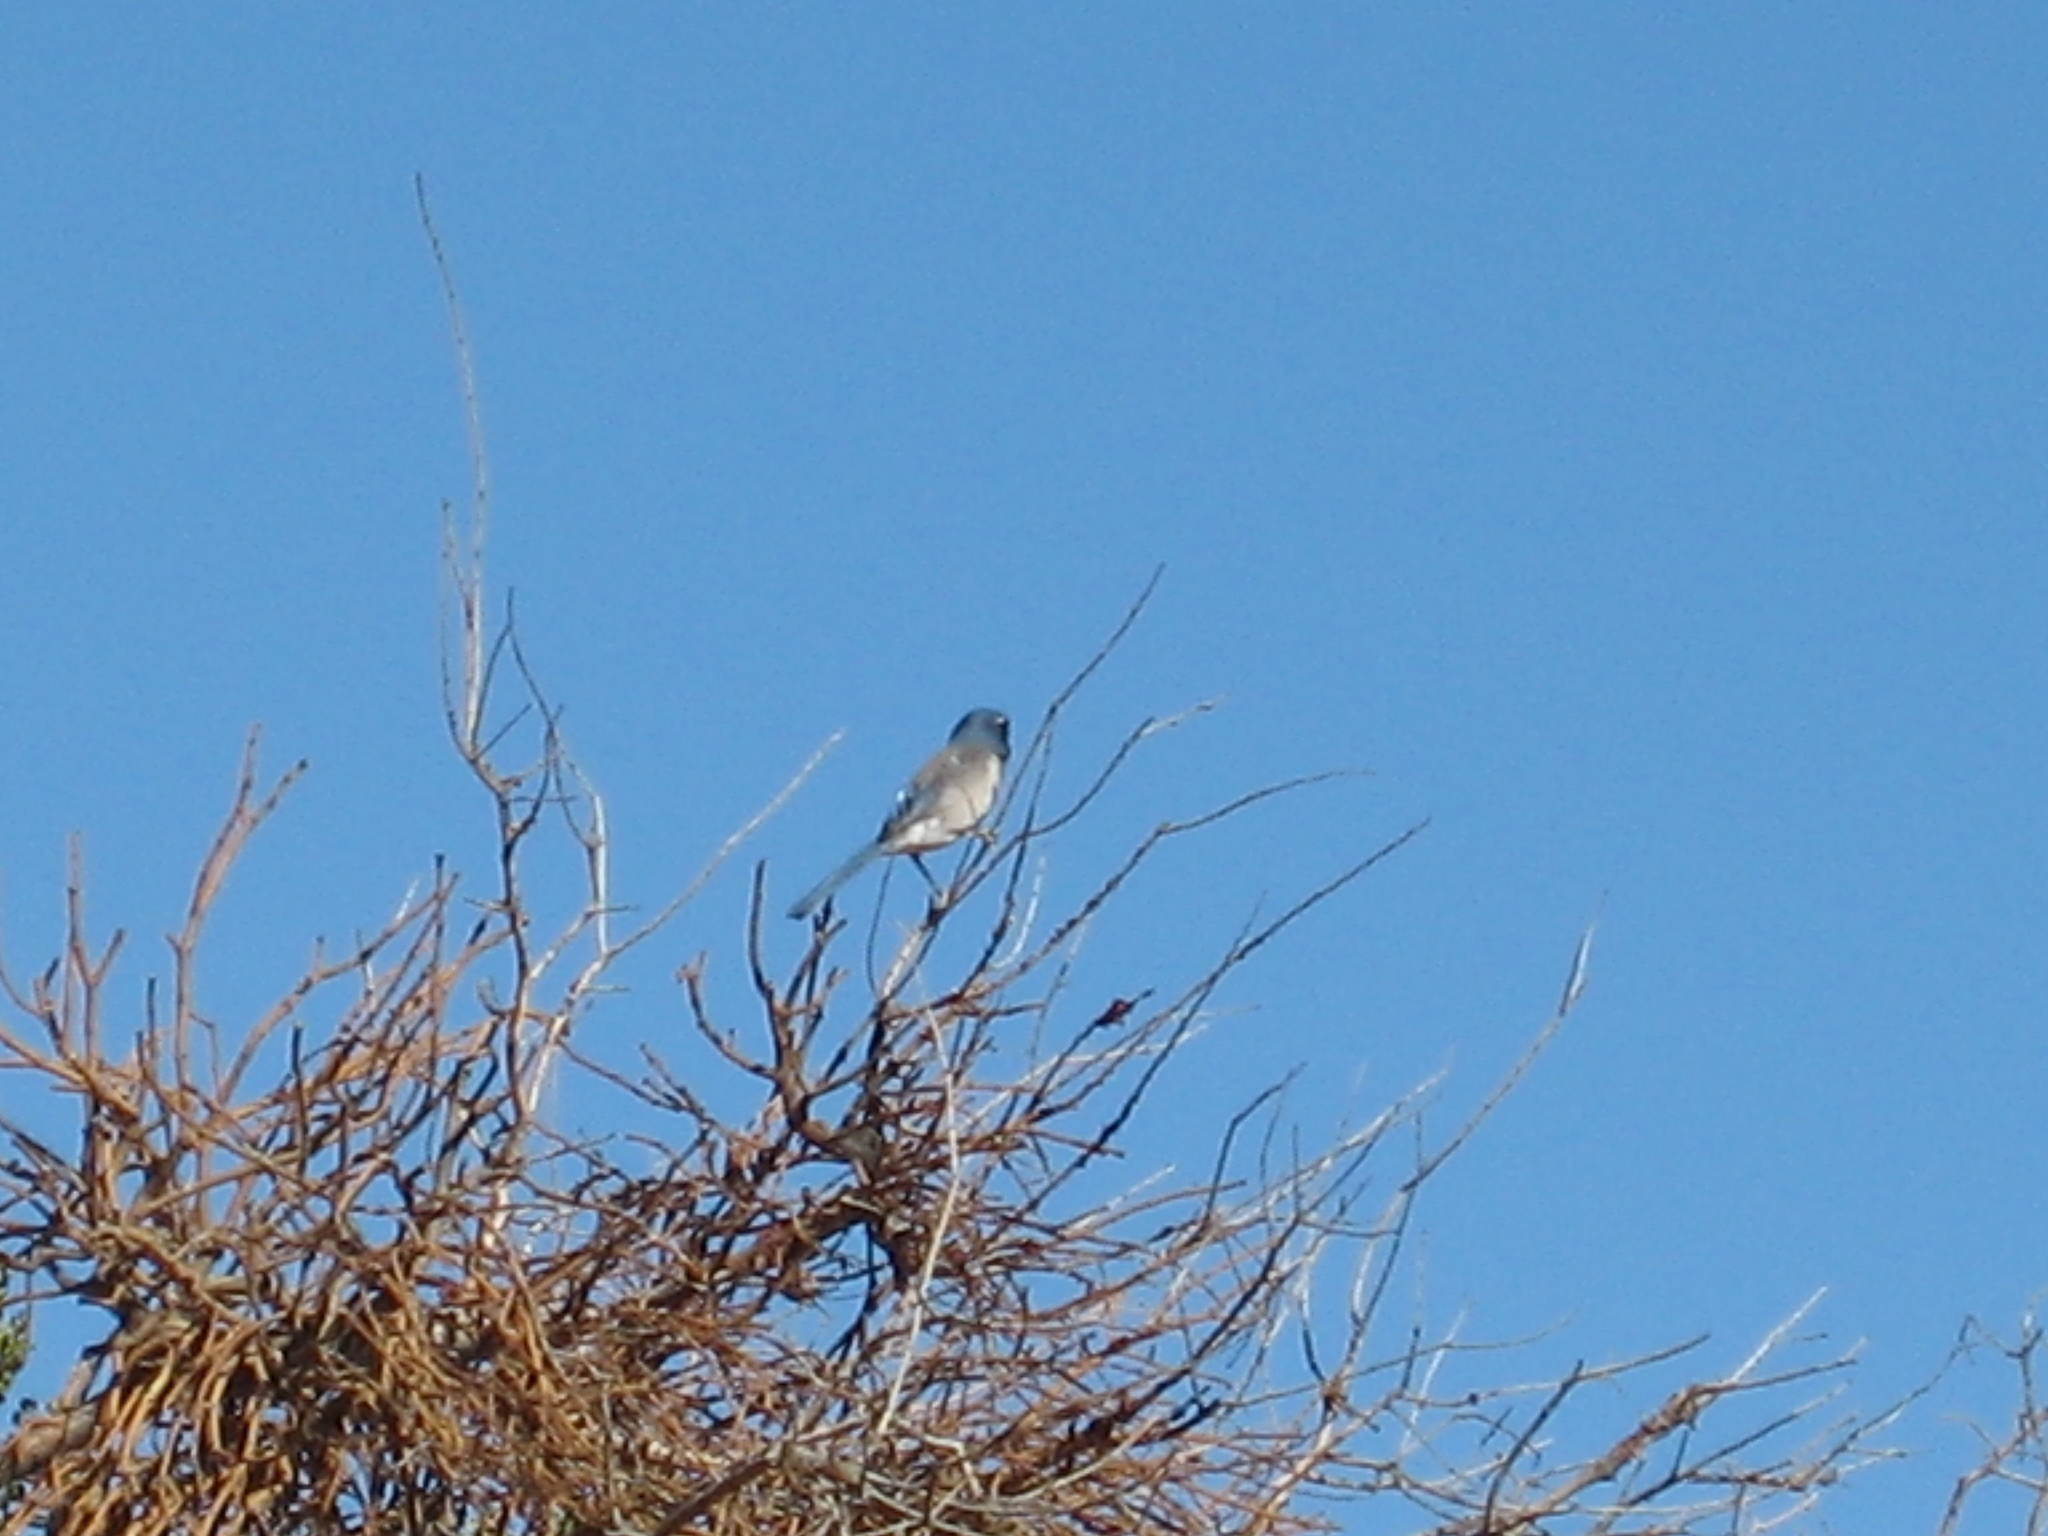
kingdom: Animalia
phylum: Chordata
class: Aves
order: Passeriformes
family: Passerellidae
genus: Amphispiza
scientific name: Amphispiza bilineata
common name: Black-throated sparrow
